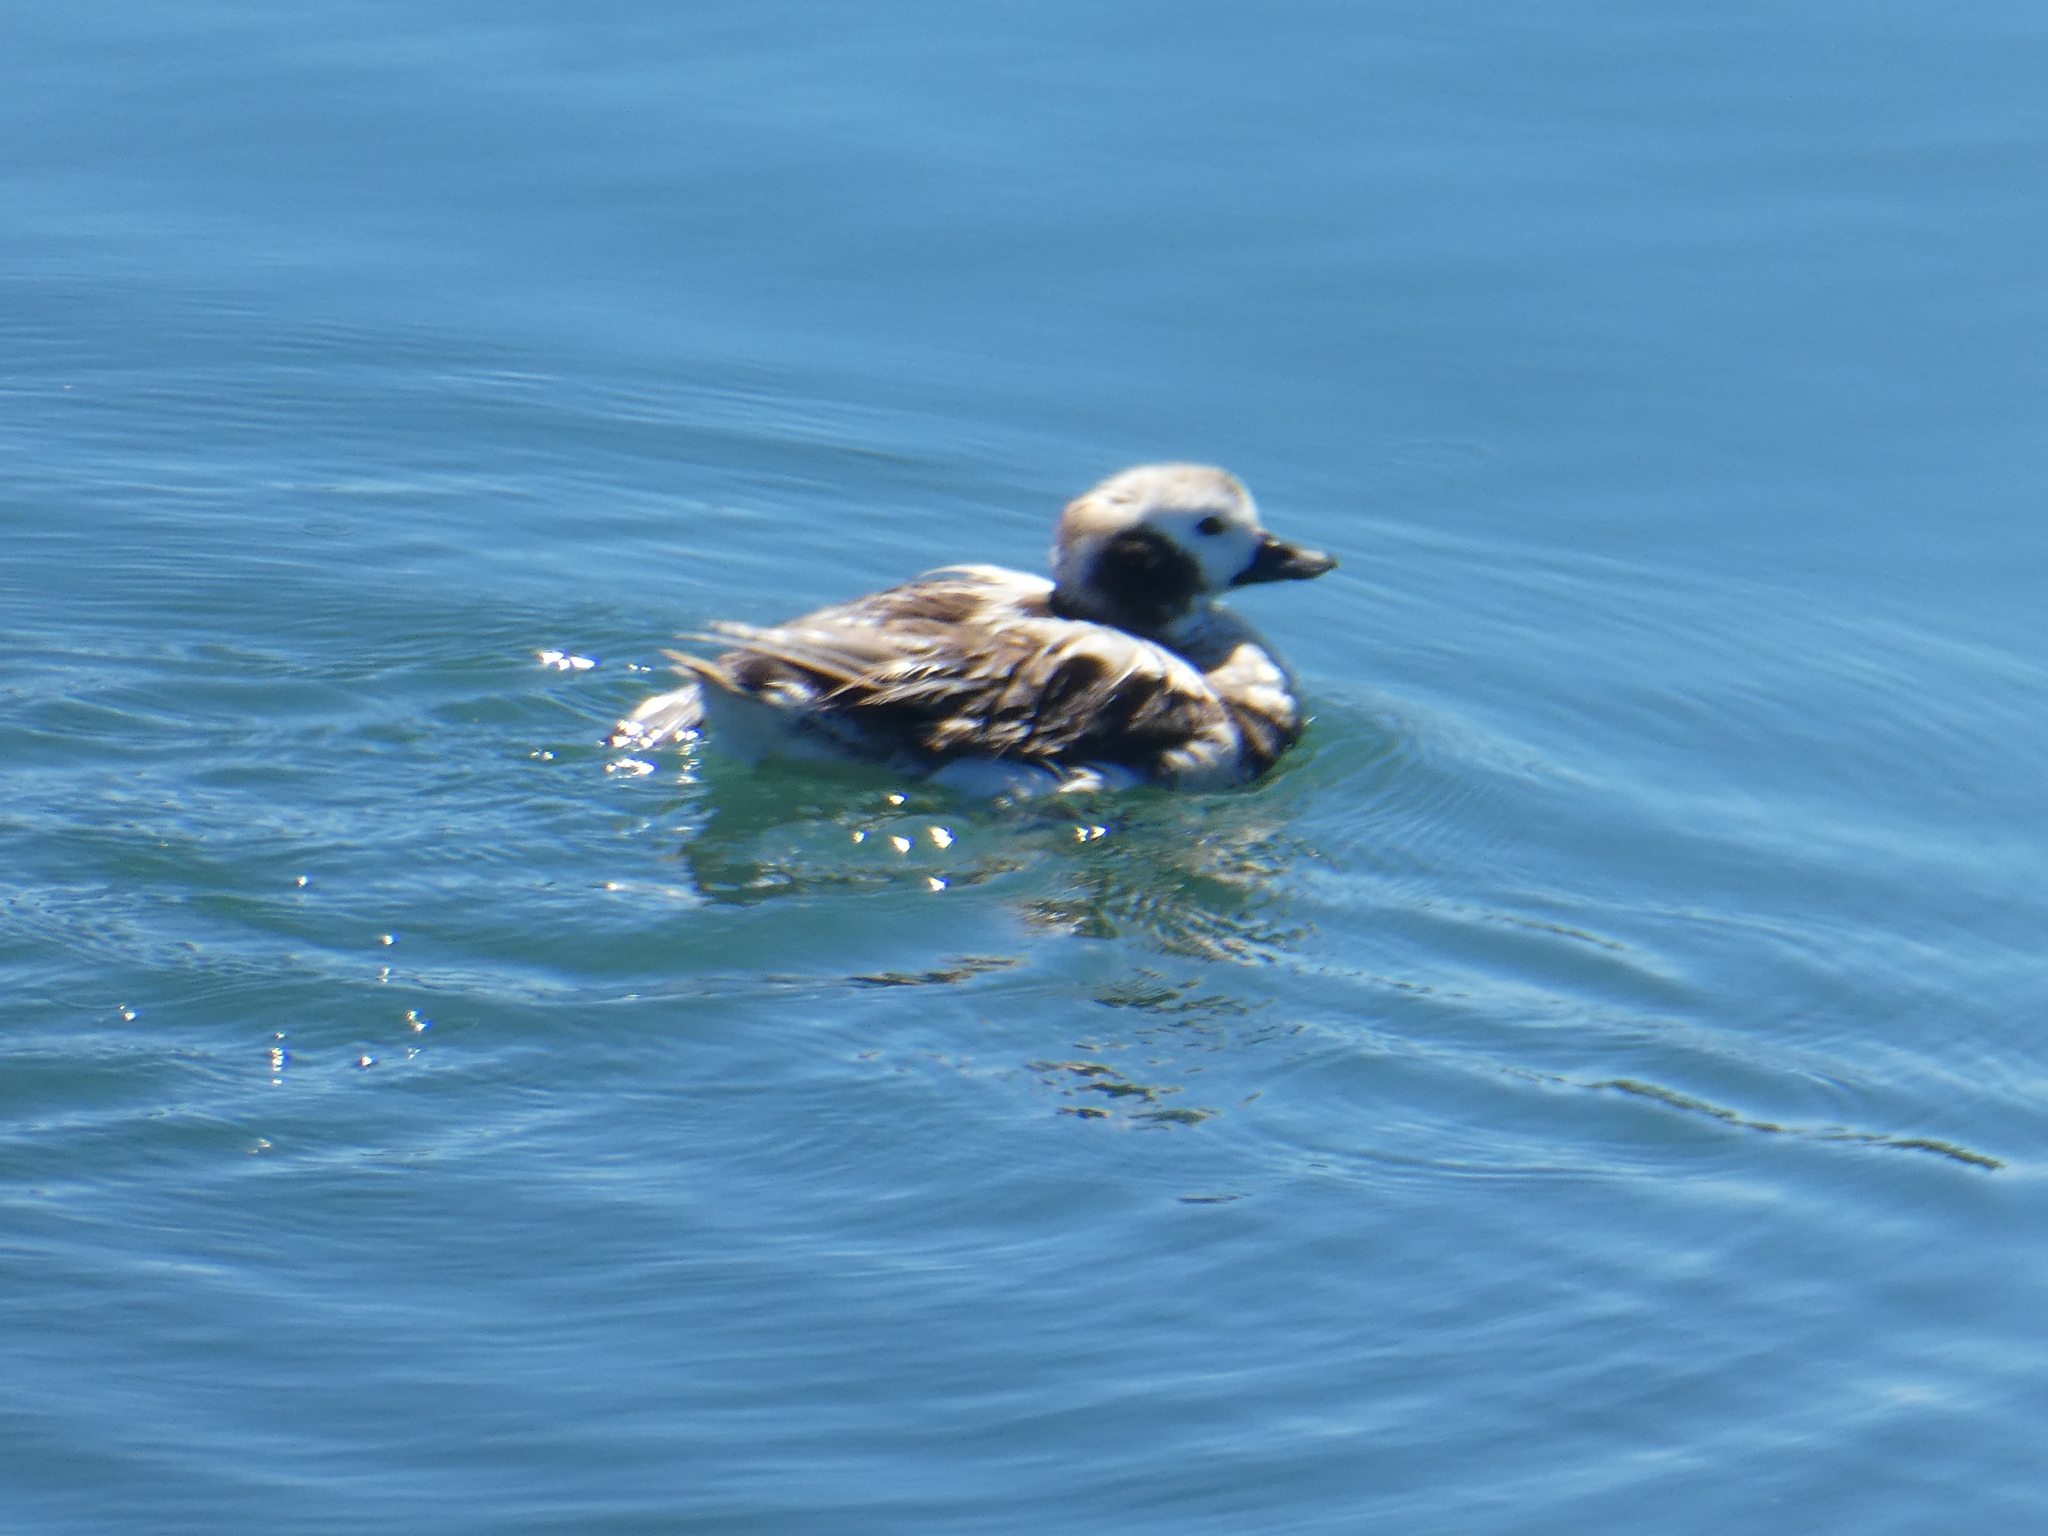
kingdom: Animalia
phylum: Chordata
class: Aves
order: Anseriformes
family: Anatidae
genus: Clangula
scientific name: Clangula hyemalis
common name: Long-tailed duck
